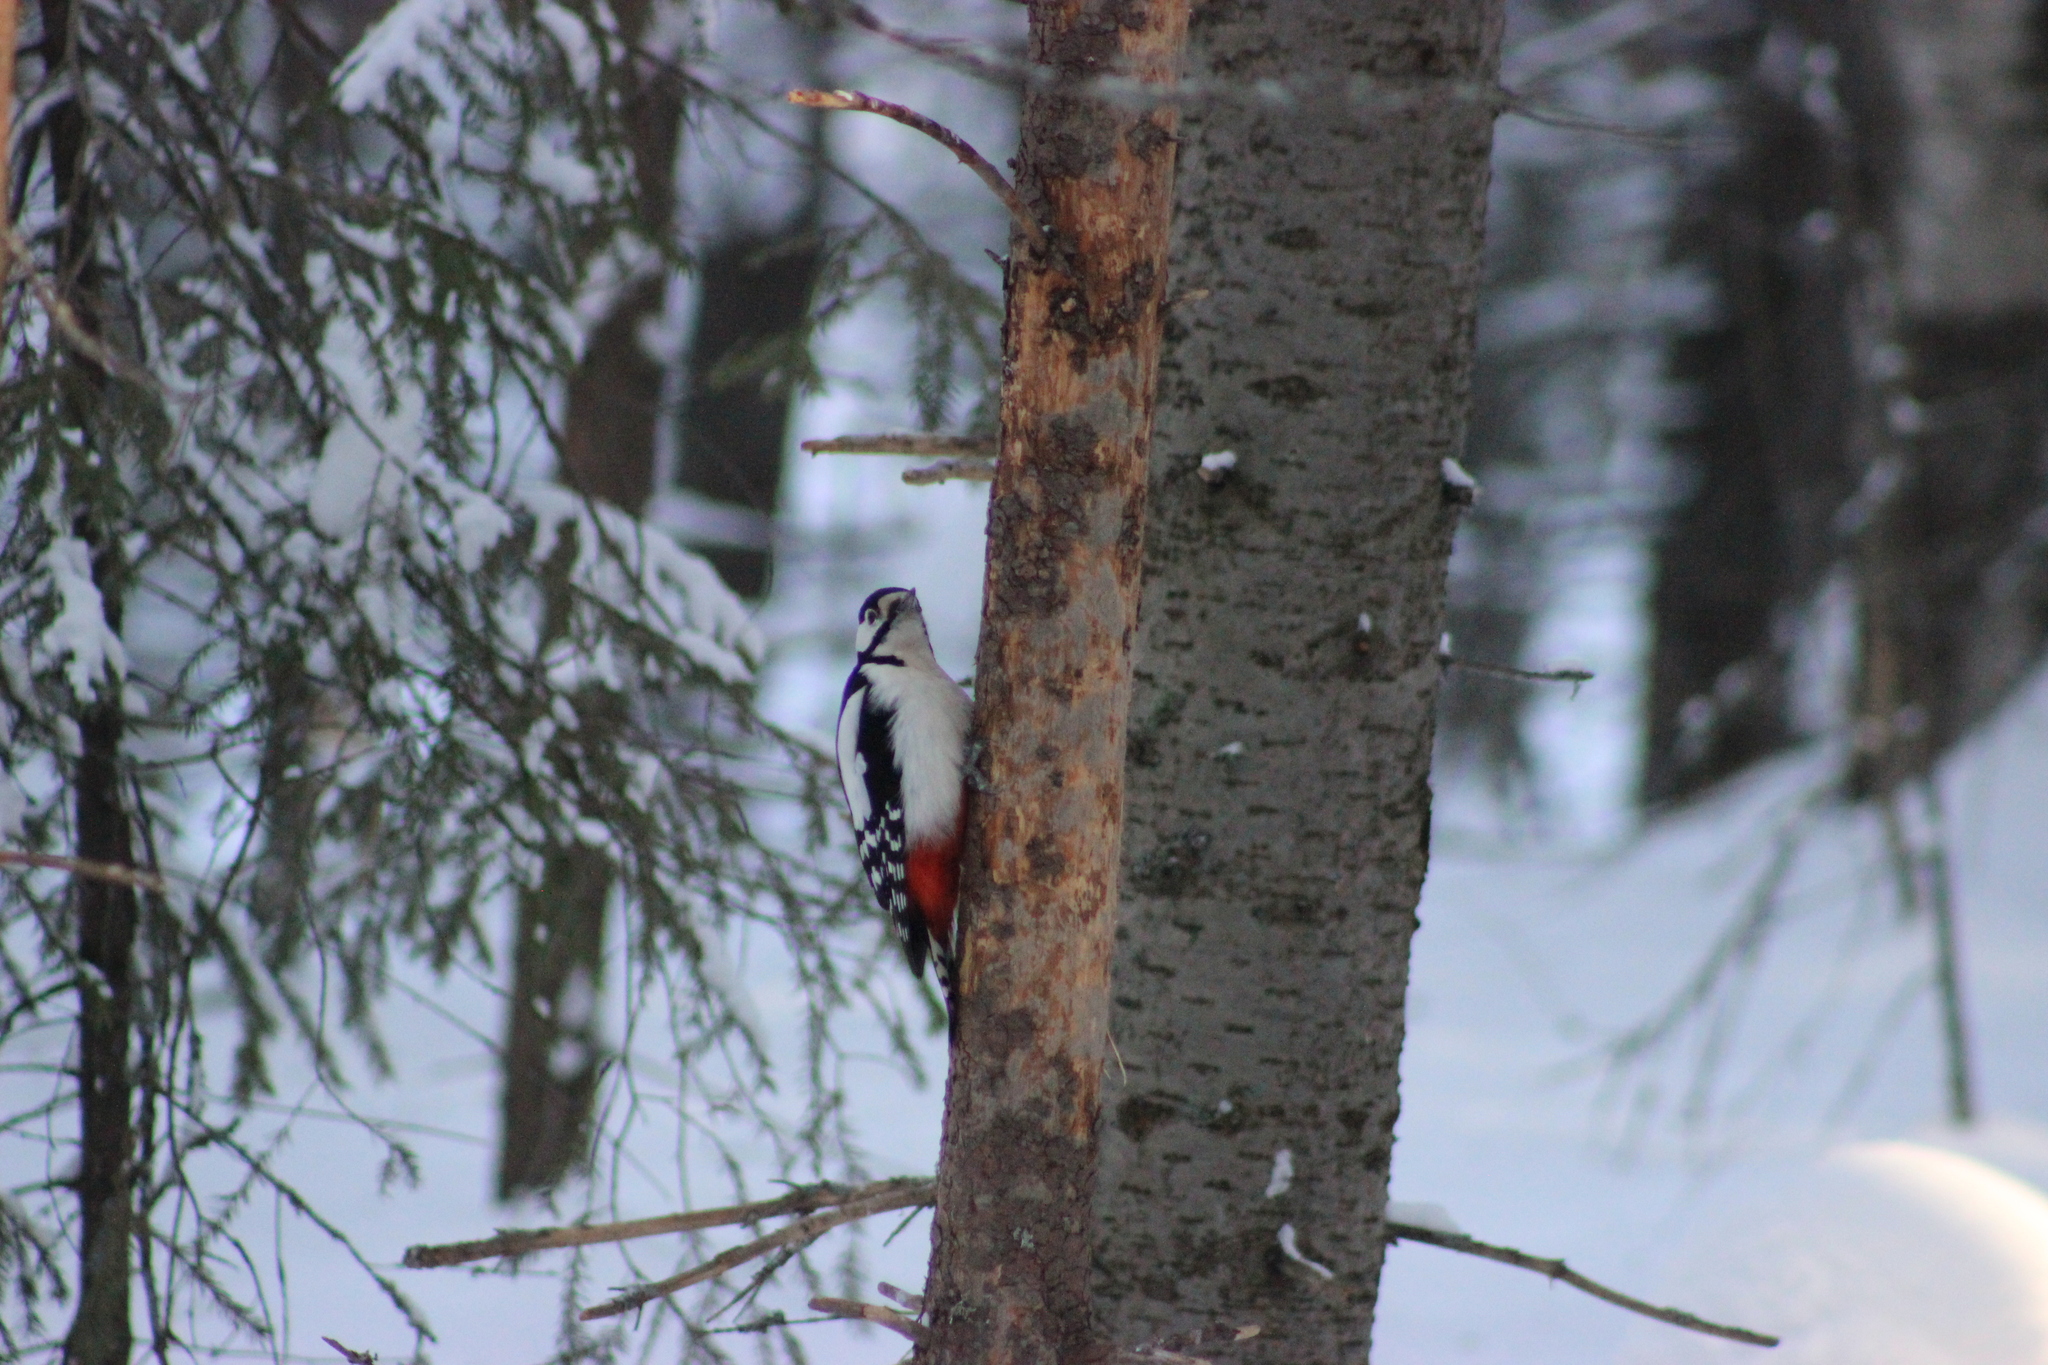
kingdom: Animalia
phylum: Chordata
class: Aves
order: Piciformes
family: Picidae
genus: Dendrocopos
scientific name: Dendrocopos major
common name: Great spotted woodpecker
